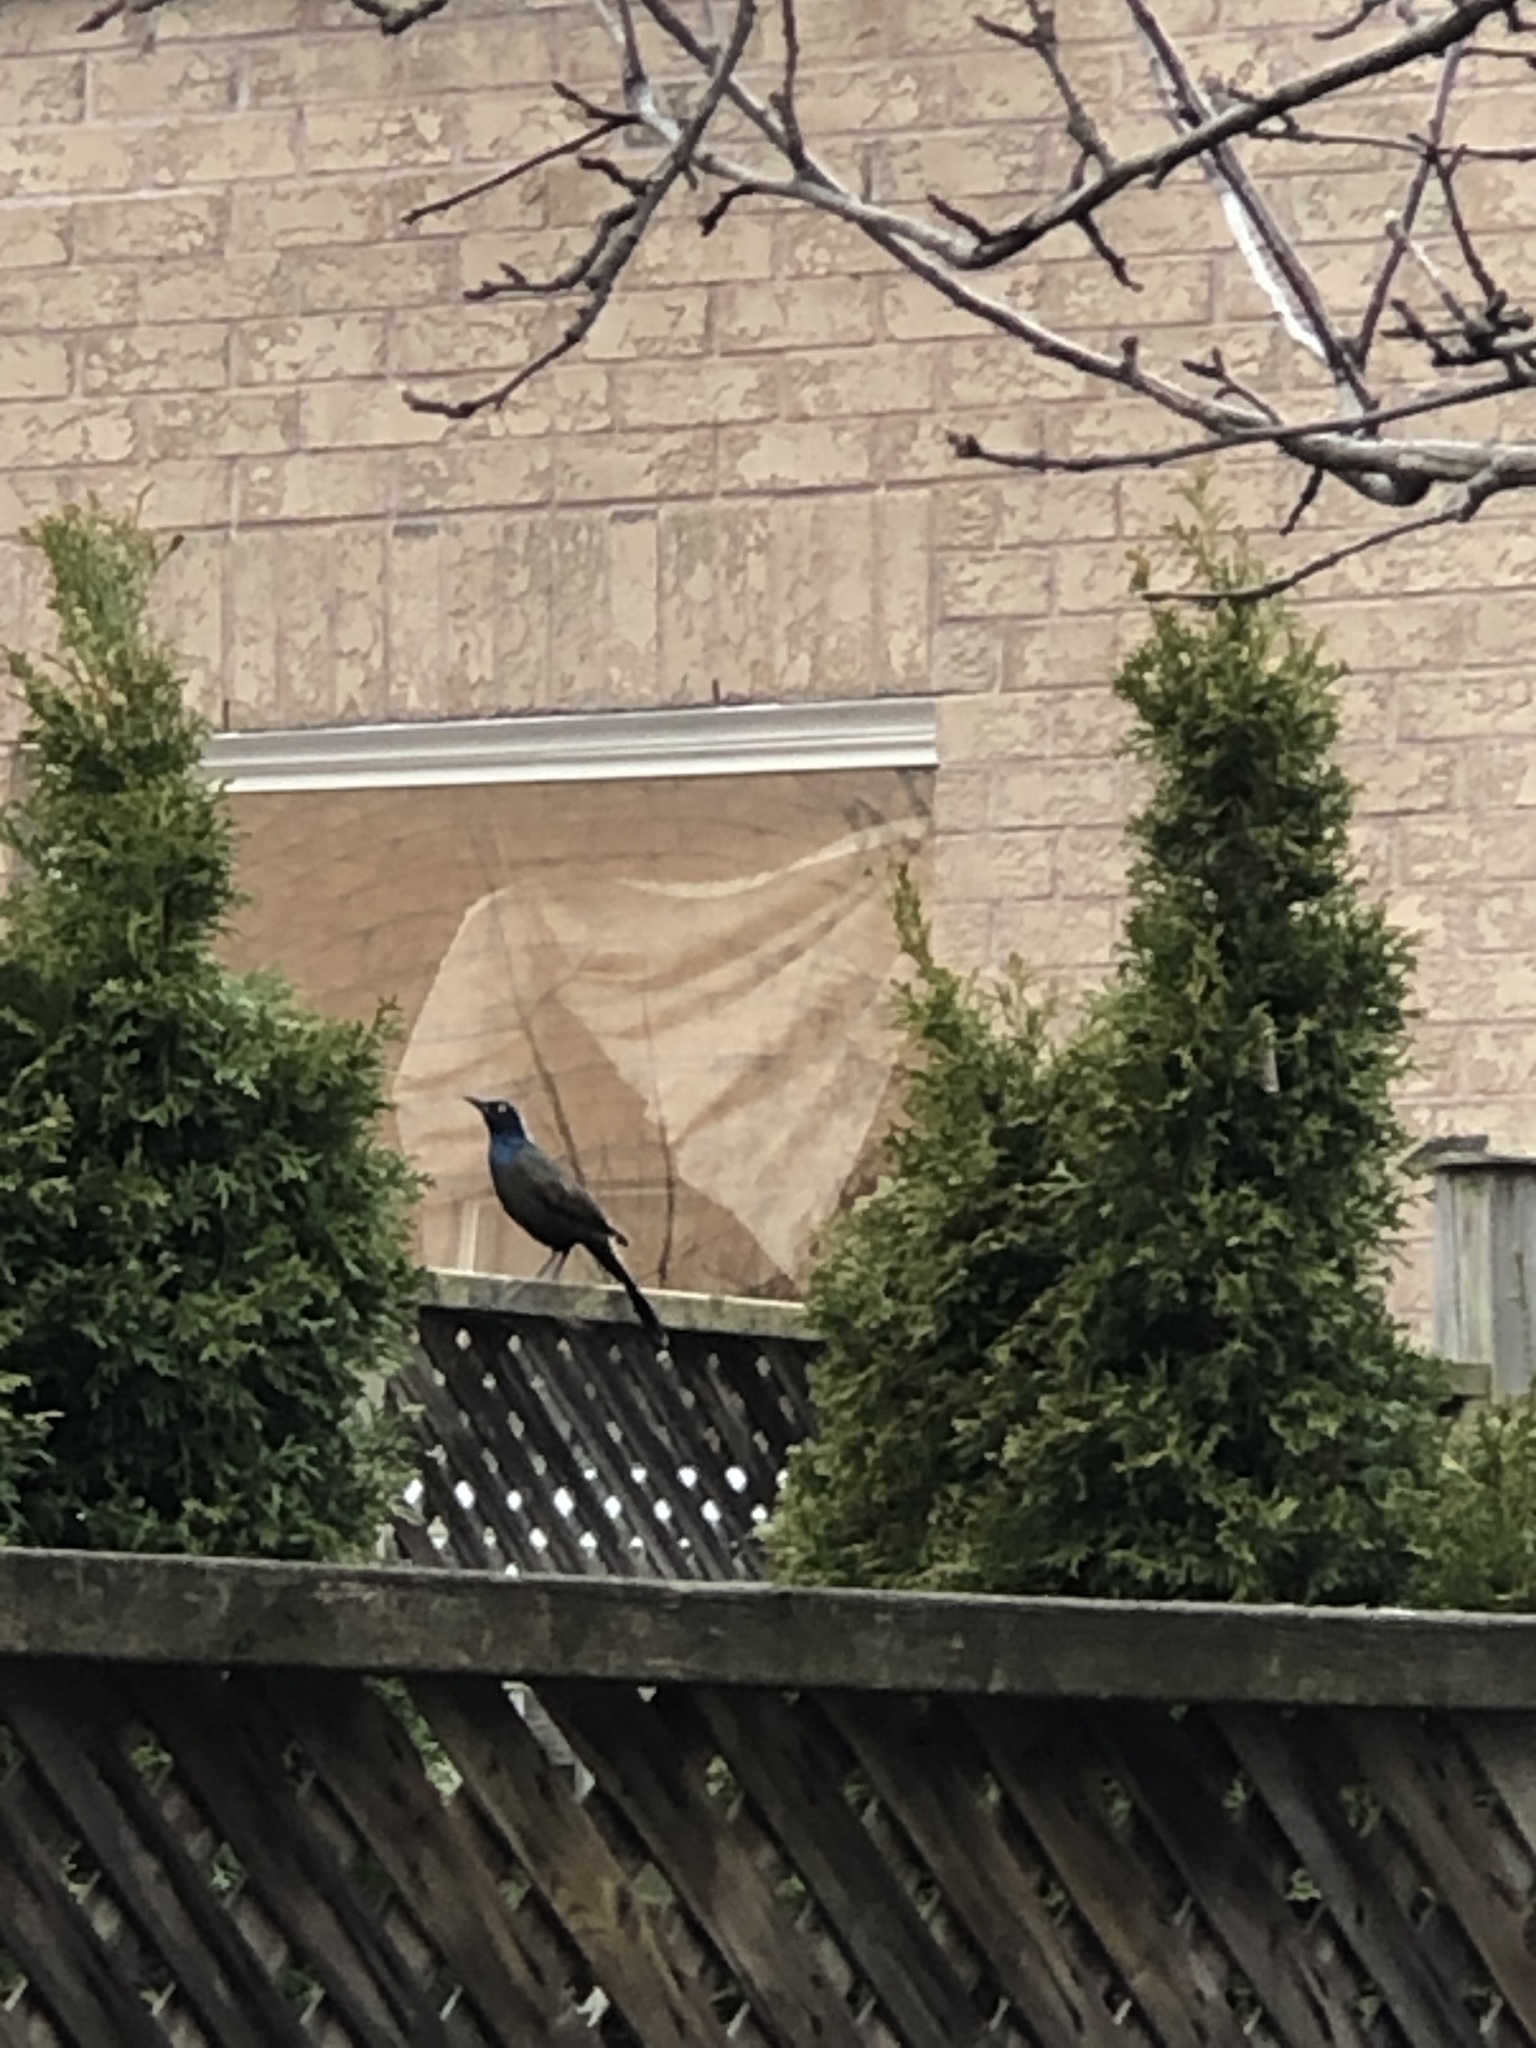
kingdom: Animalia
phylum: Chordata
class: Aves
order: Passeriformes
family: Icteridae
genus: Quiscalus
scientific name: Quiscalus quiscula
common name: Common grackle
